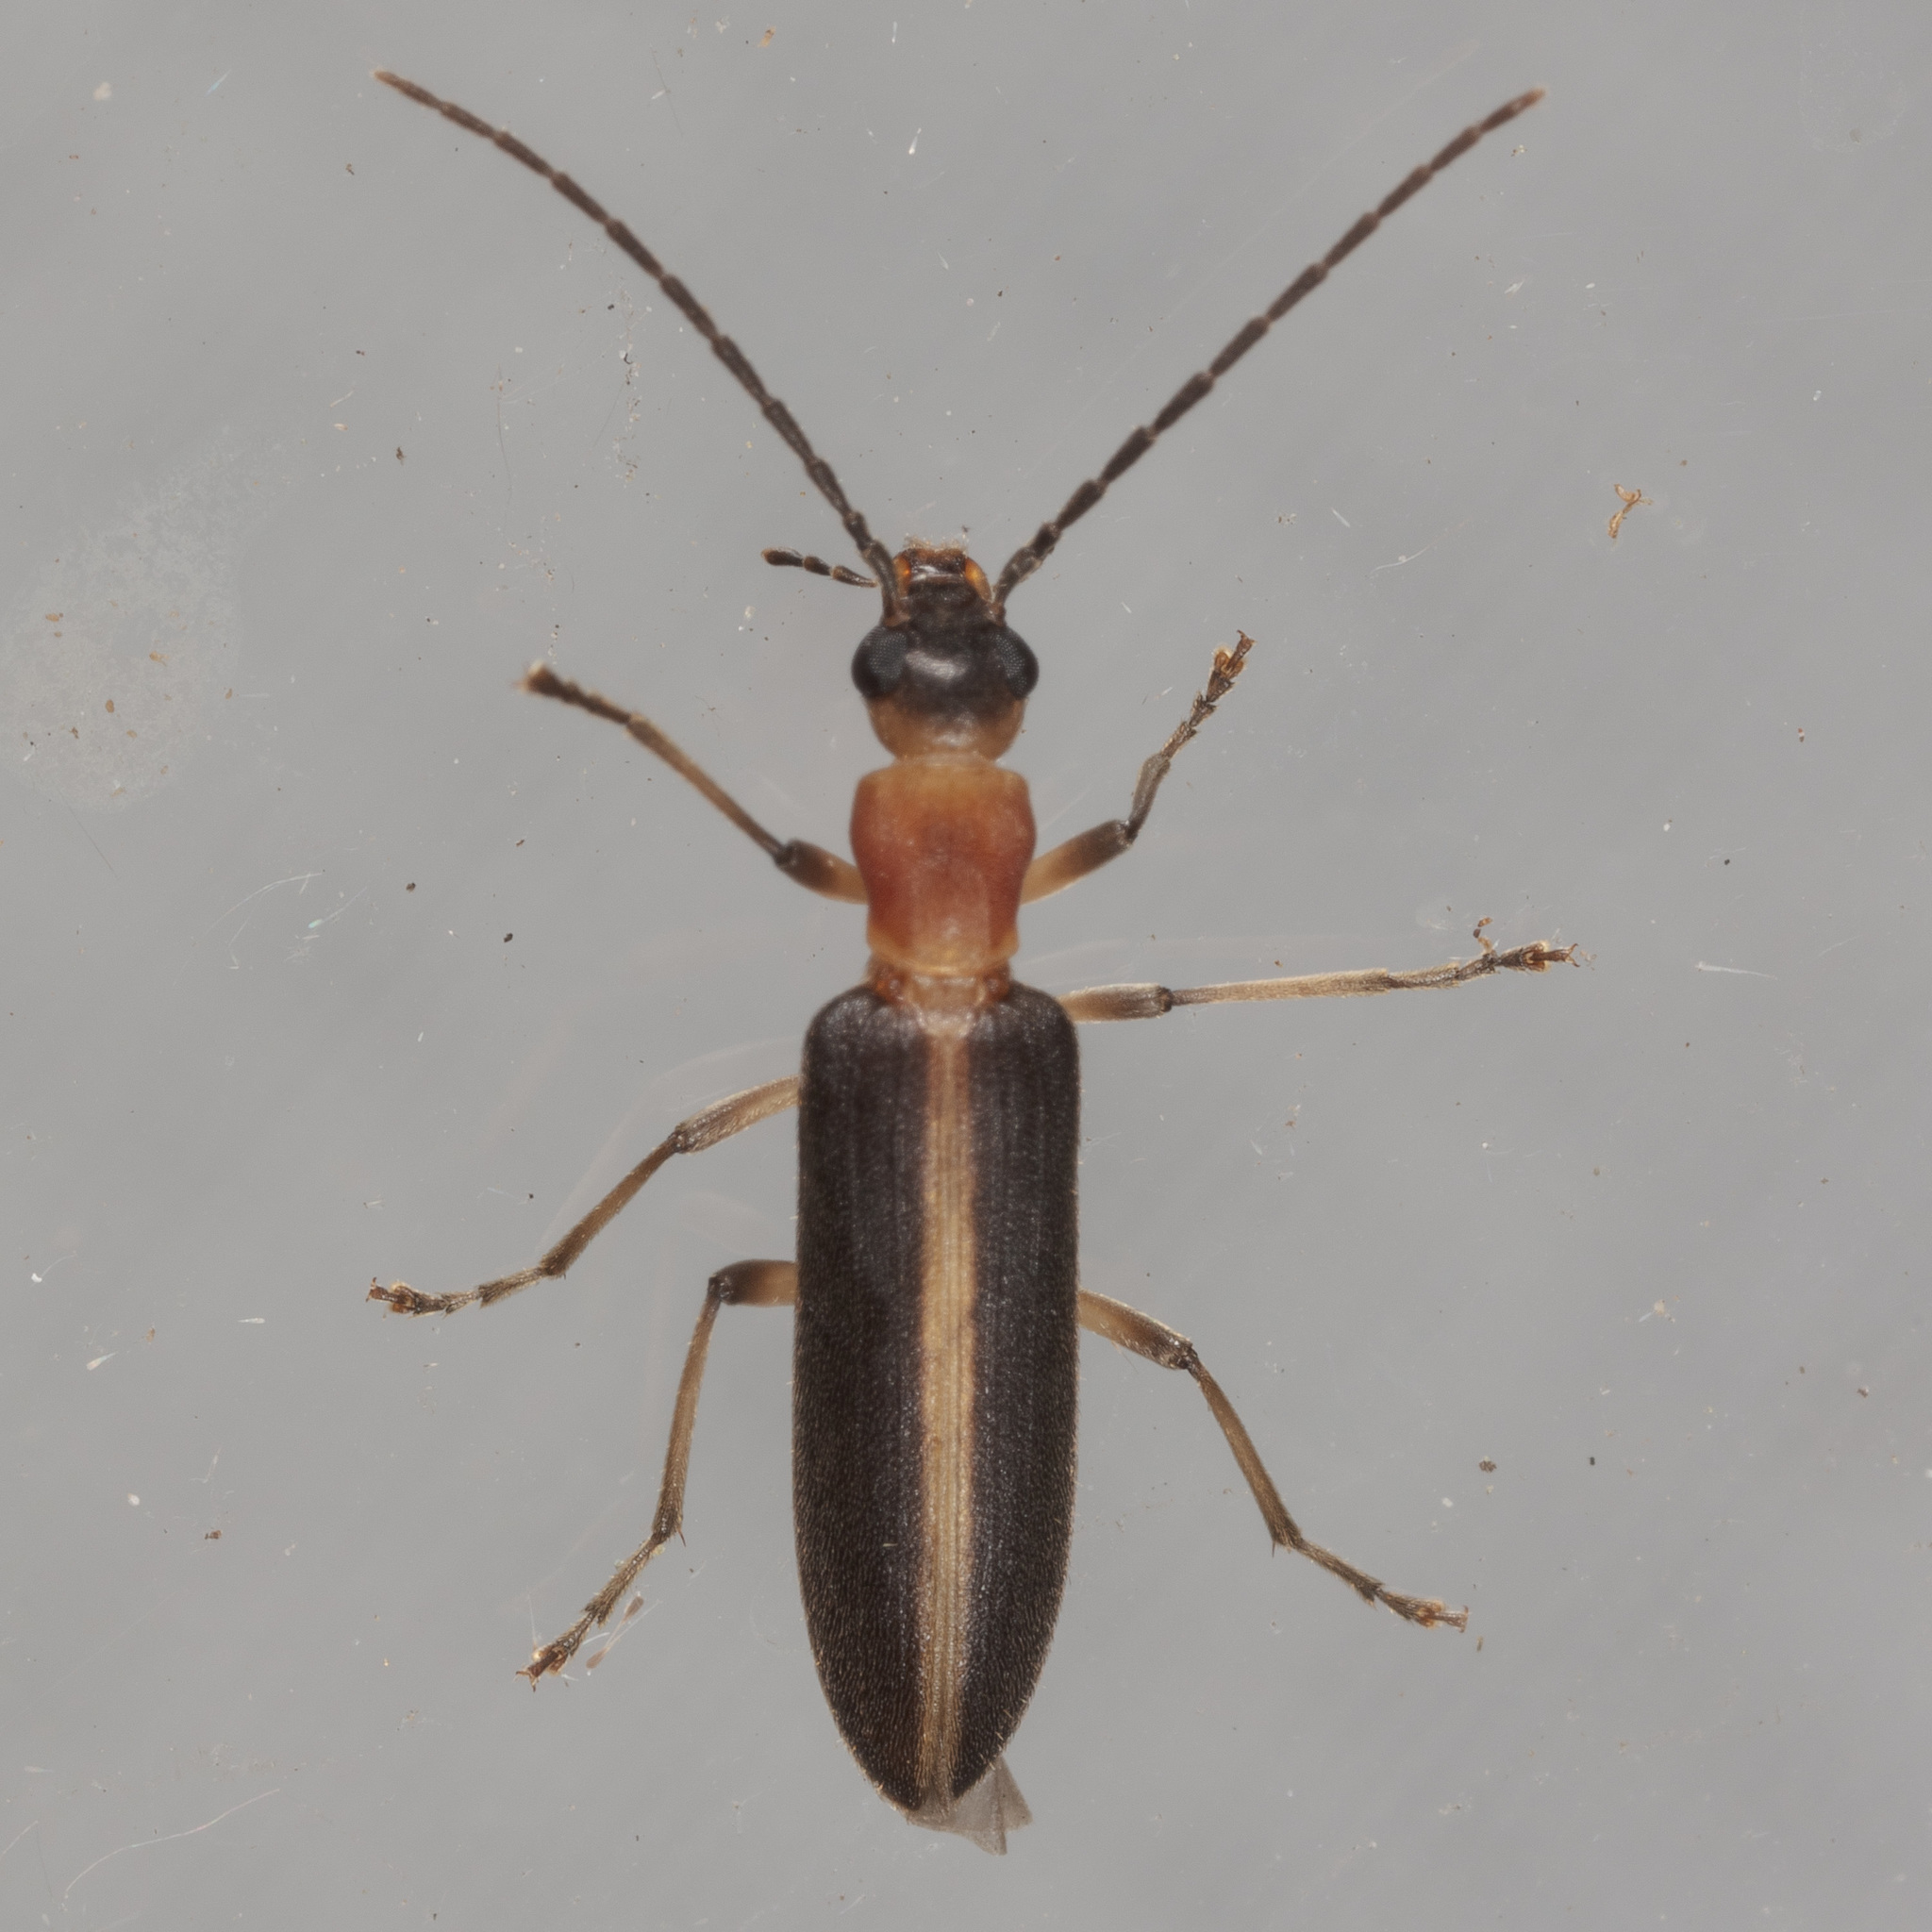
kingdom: Animalia
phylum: Arthropoda
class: Insecta
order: Coleoptera
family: Oedemeridae
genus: Oxycopis
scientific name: Oxycopis mimetica
